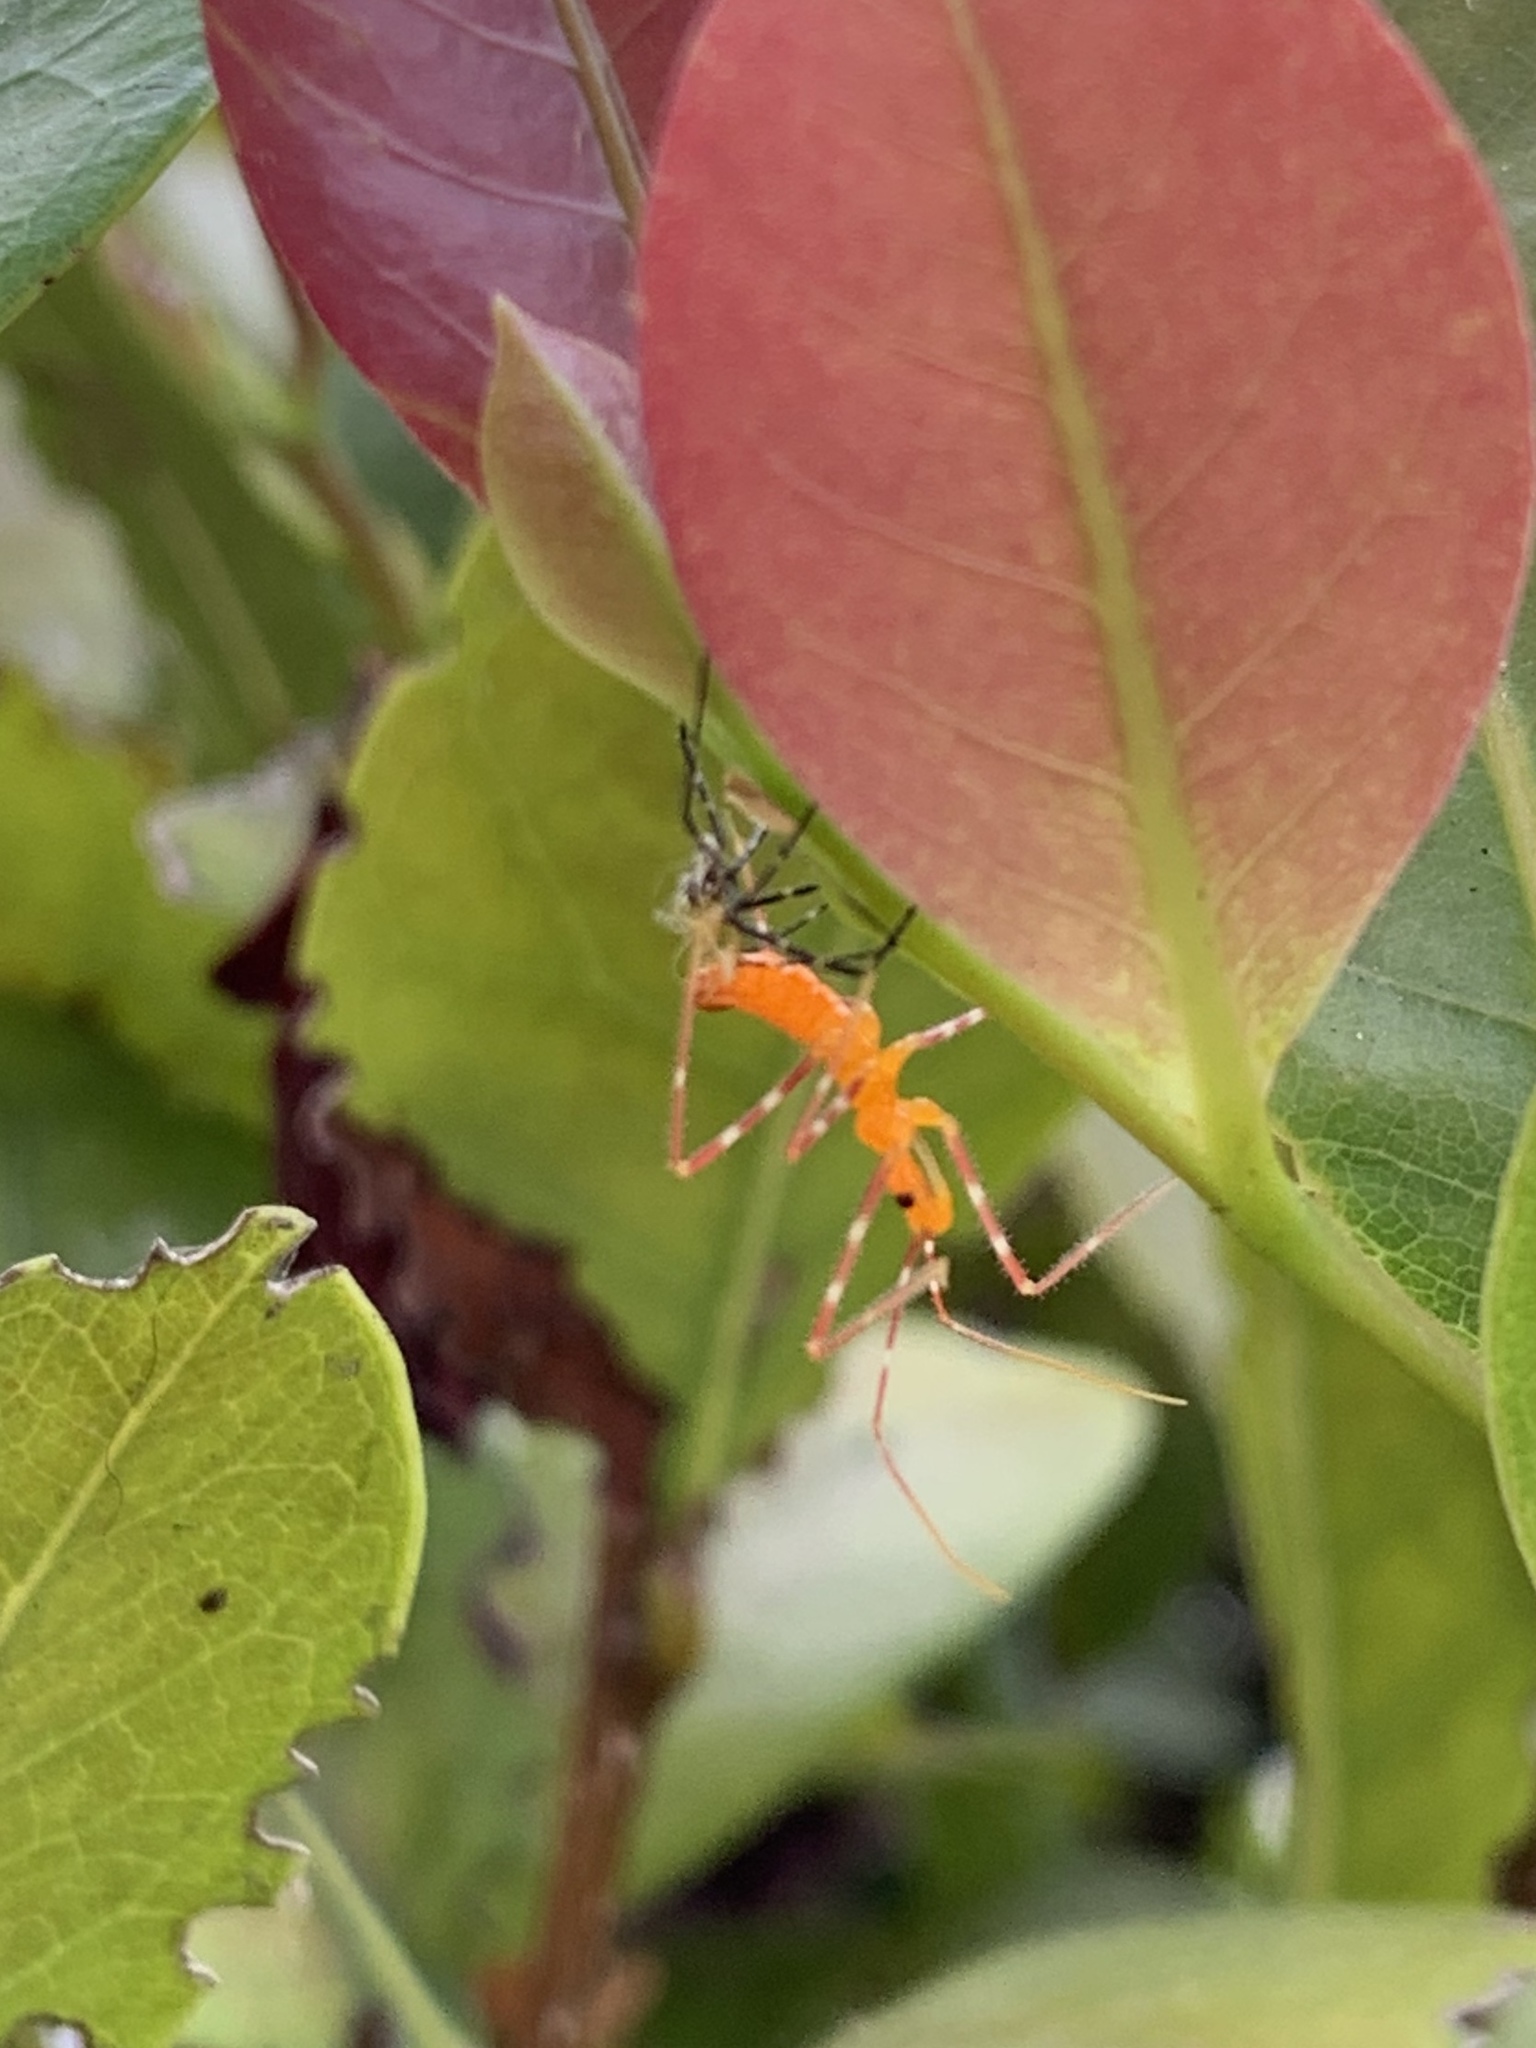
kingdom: Animalia
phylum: Arthropoda
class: Insecta
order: Hemiptera
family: Reduviidae
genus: Zelus
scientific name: Zelus longipes
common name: Milkweed assassin bug
